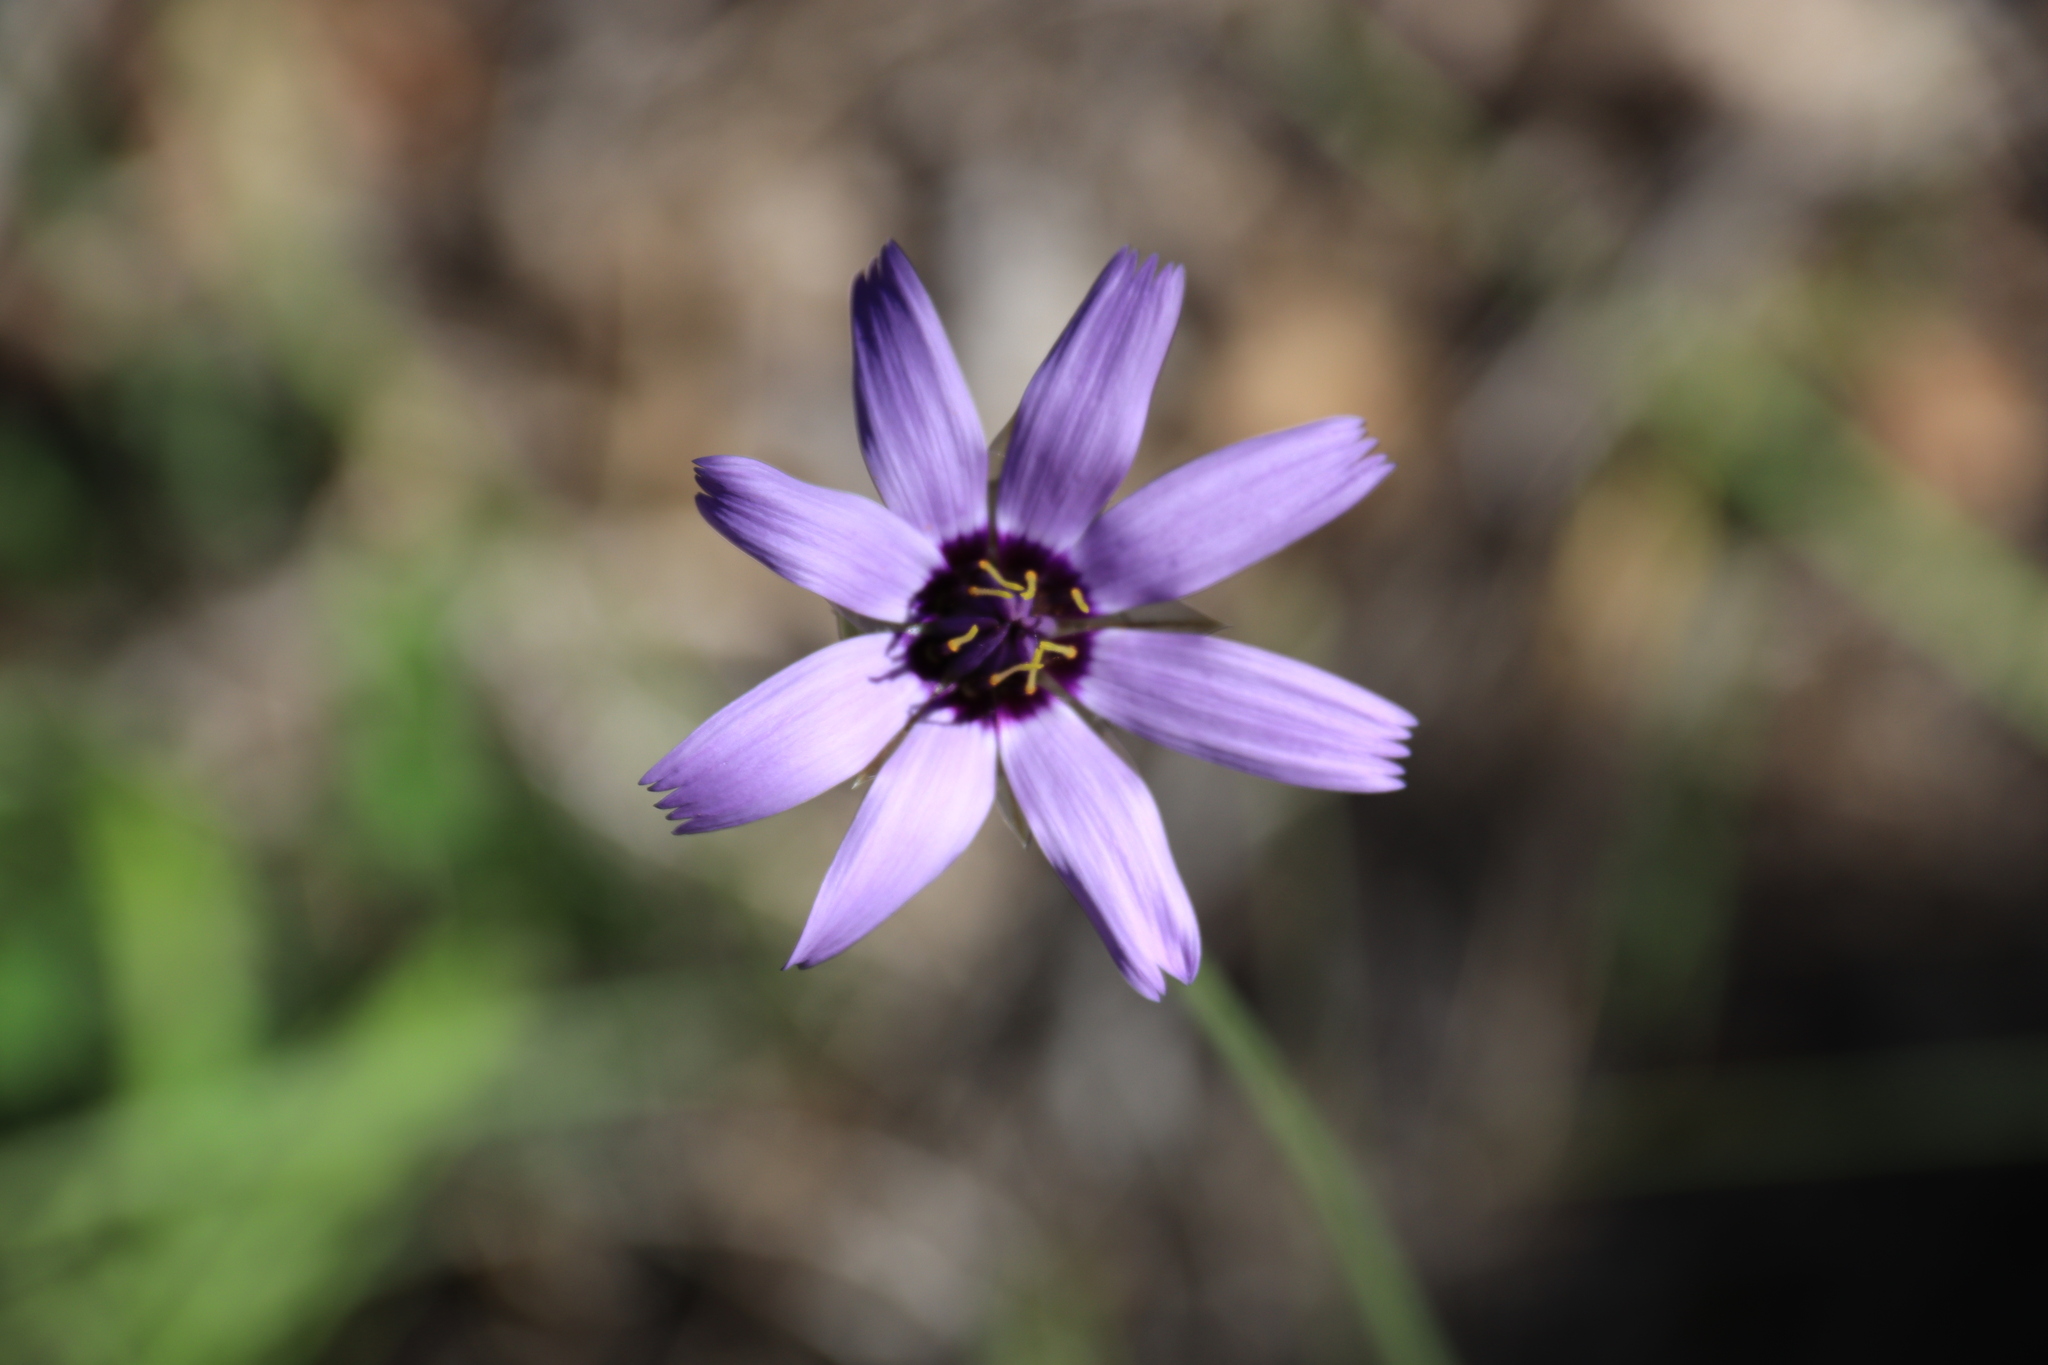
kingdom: Plantae
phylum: Tracheophyta
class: Magnoliopsida
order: Asterales
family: Asteraceae
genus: Catananche
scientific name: Catananche caerulea
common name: Blue cupidone
